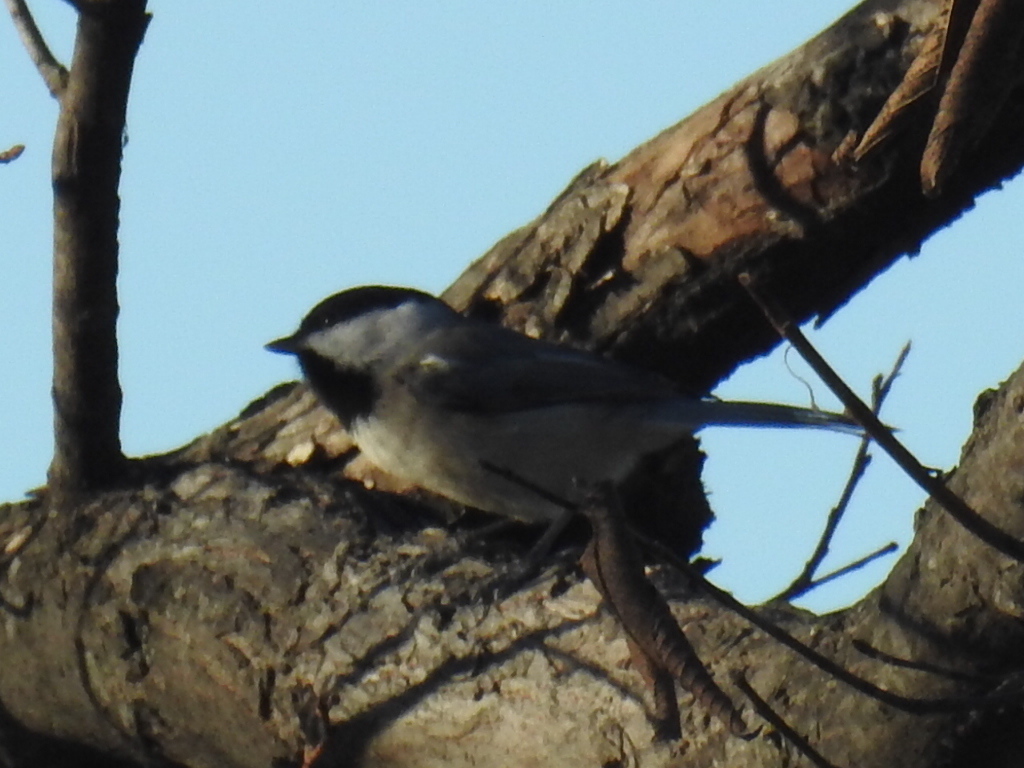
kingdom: Animalia
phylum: Chordata
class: Aves
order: Passeriformes
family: Paridae
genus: Poecile
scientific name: Poecile carolinensis
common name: Carolina chickadee
